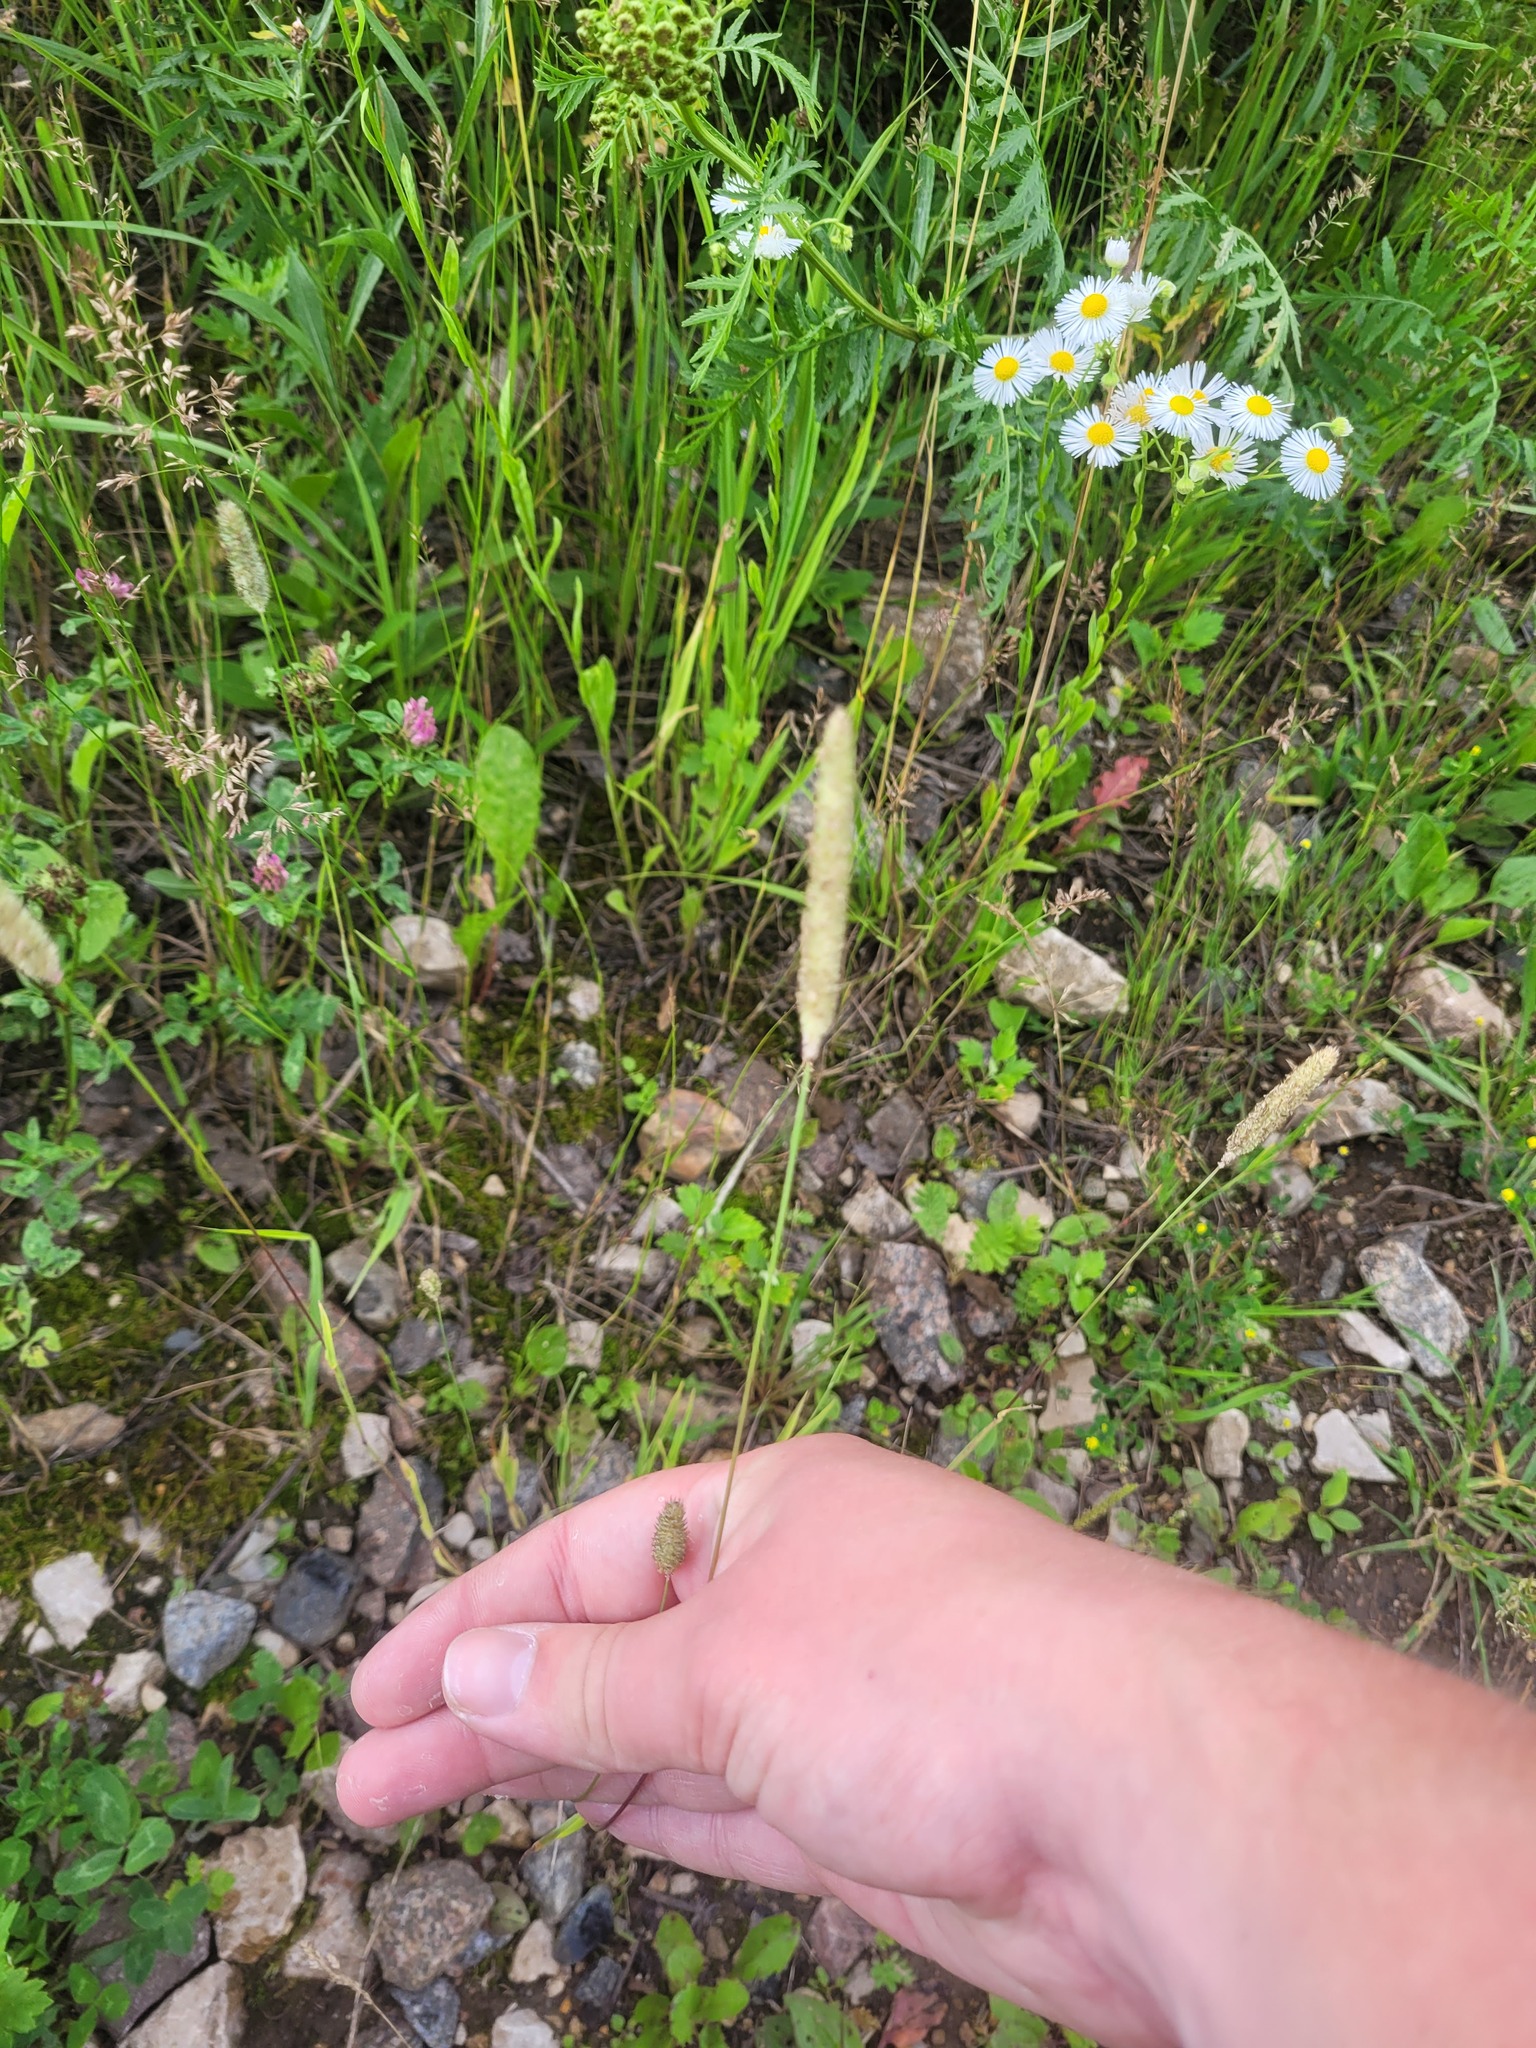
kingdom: Plantae
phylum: Tracheophyta
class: Liliopsida
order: Poales
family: Poaceae
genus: Phleum
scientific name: Phleum pratense
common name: Timothy grass
